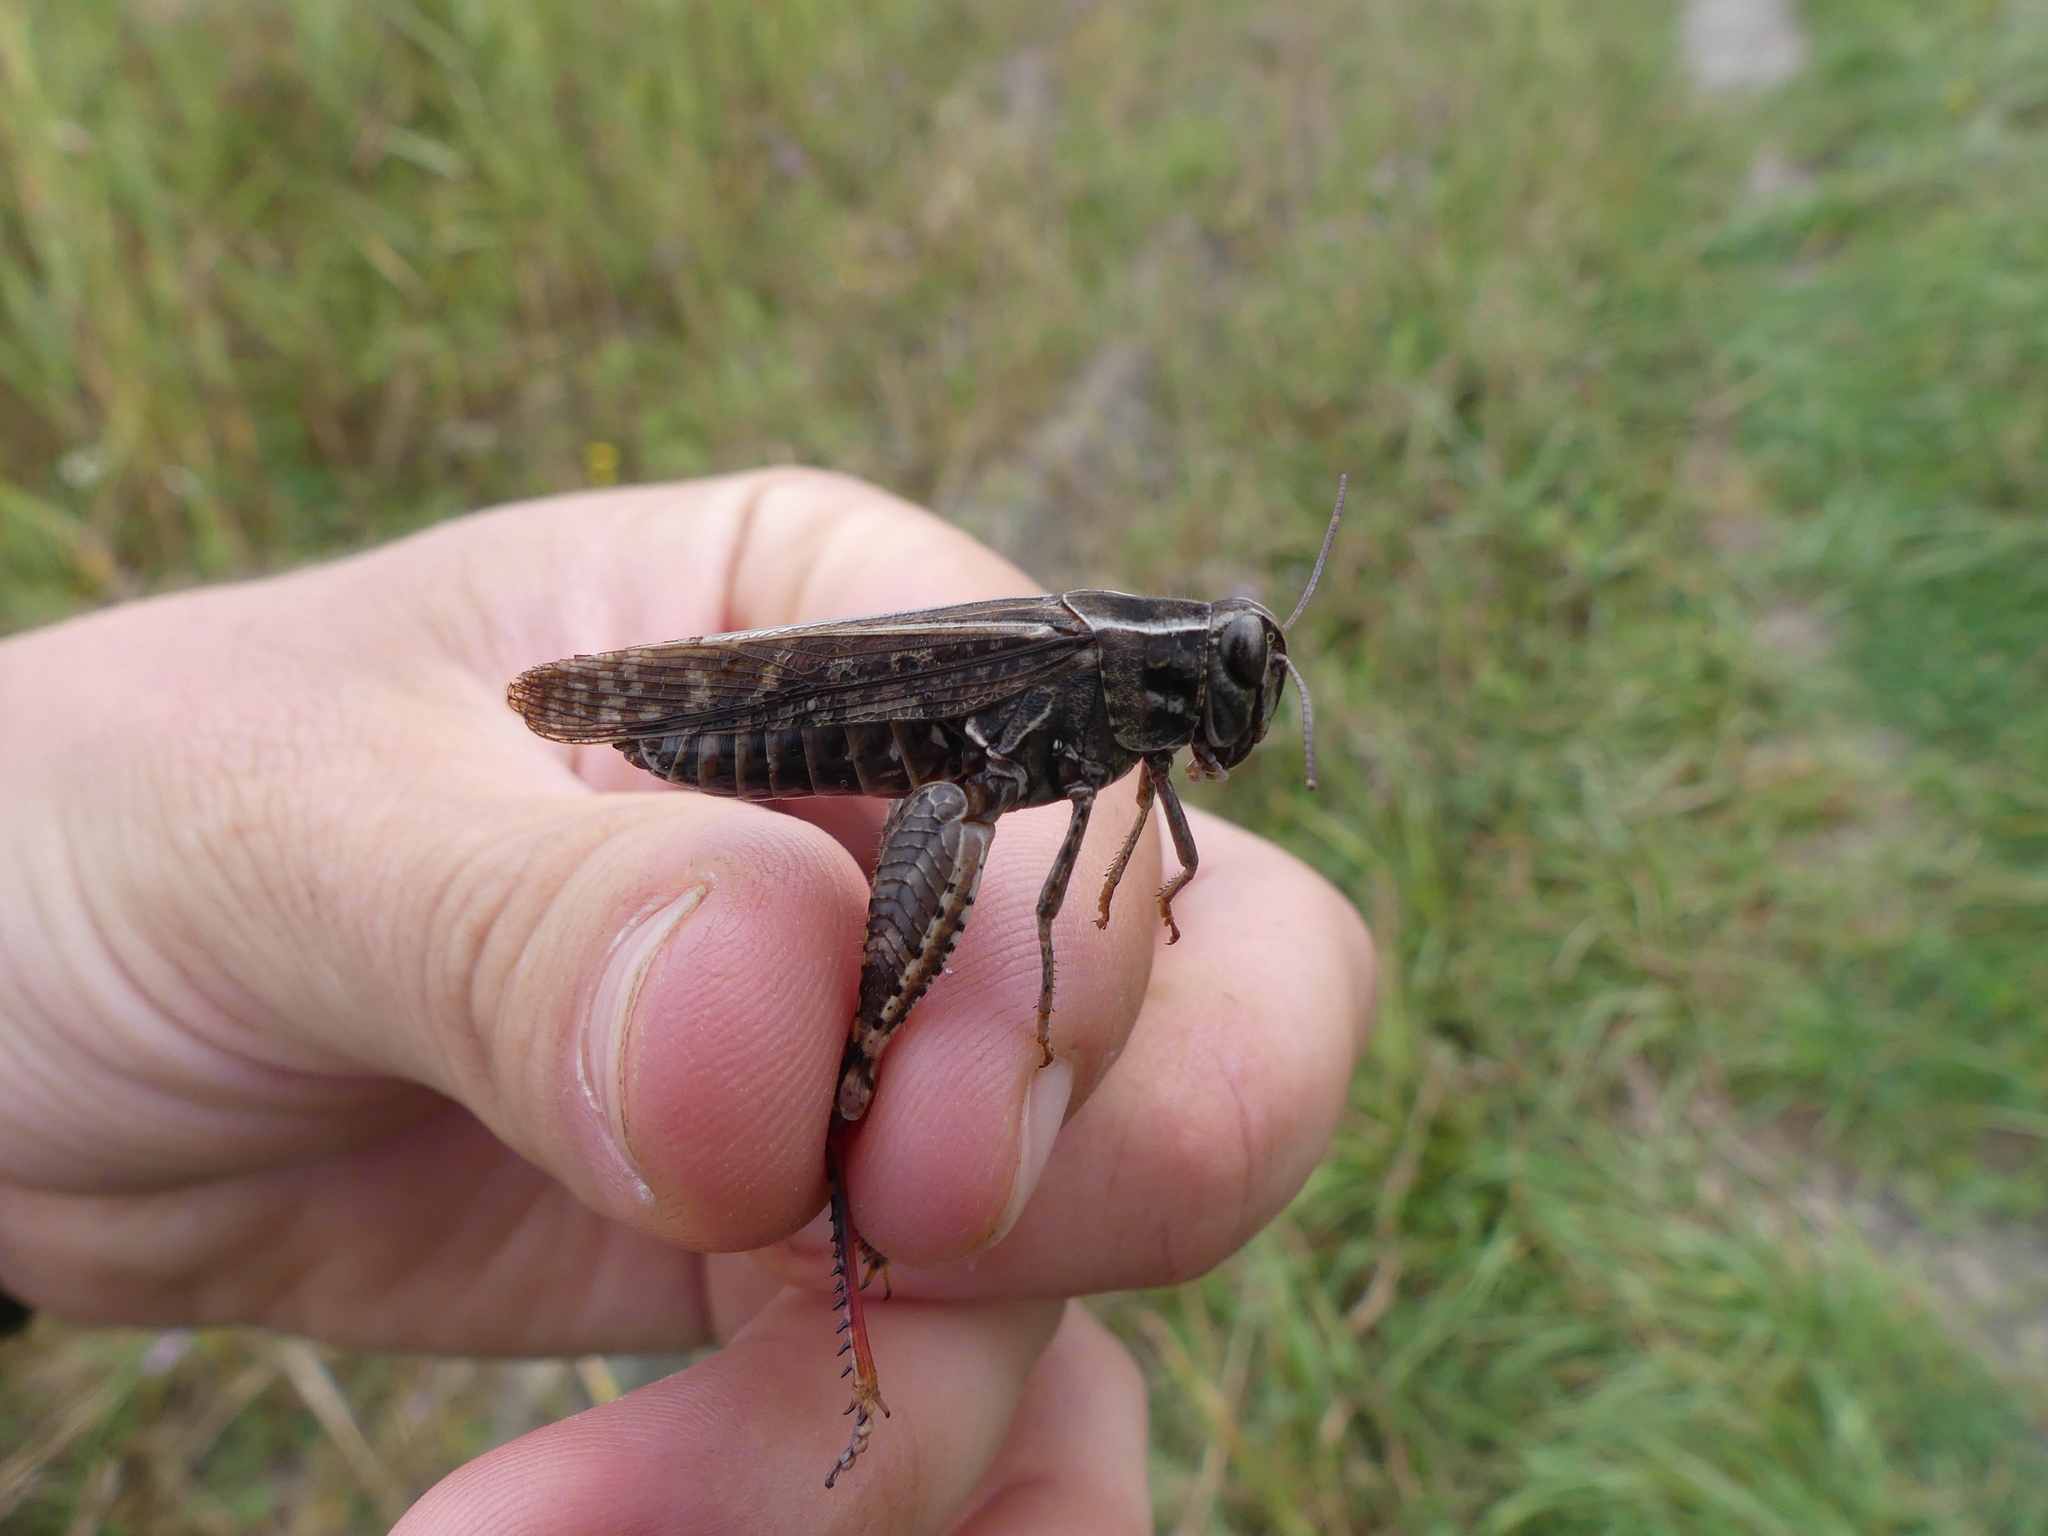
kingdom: Animalia
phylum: Arthropoda
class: Insecta
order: Orthoptera
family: Acrididae
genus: Calliptamus
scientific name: Calliptamus italicus
